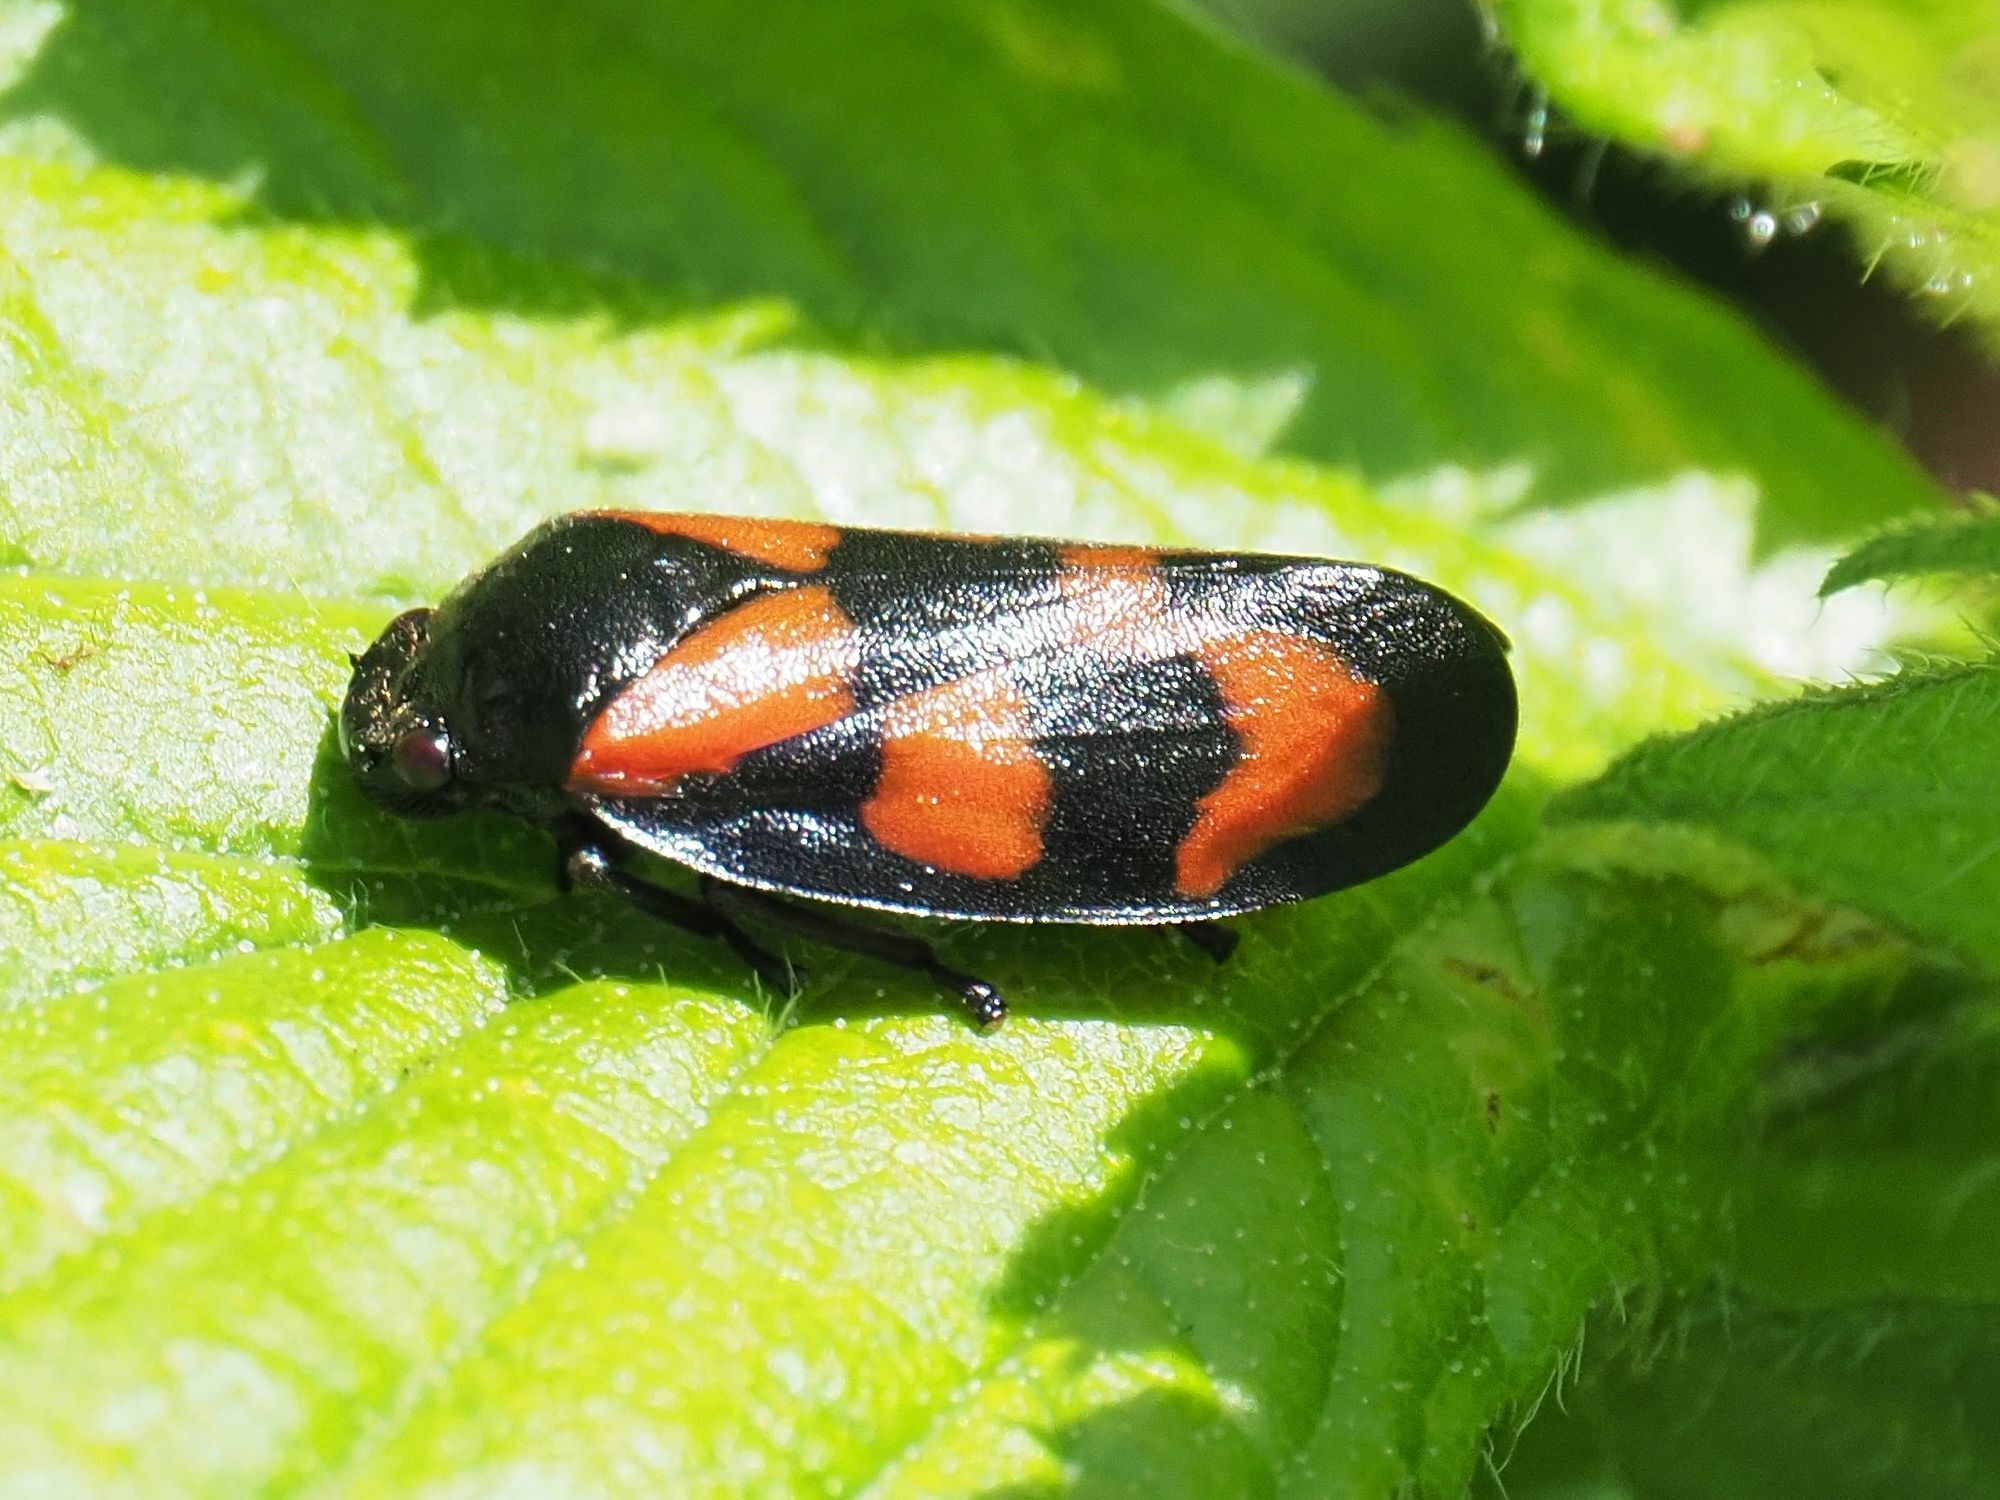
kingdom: Animalia
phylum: Arthropoda
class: Insecta
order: Hemiptera
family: Cercopidae
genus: Cercopis
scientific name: Cercopis vulnerata
